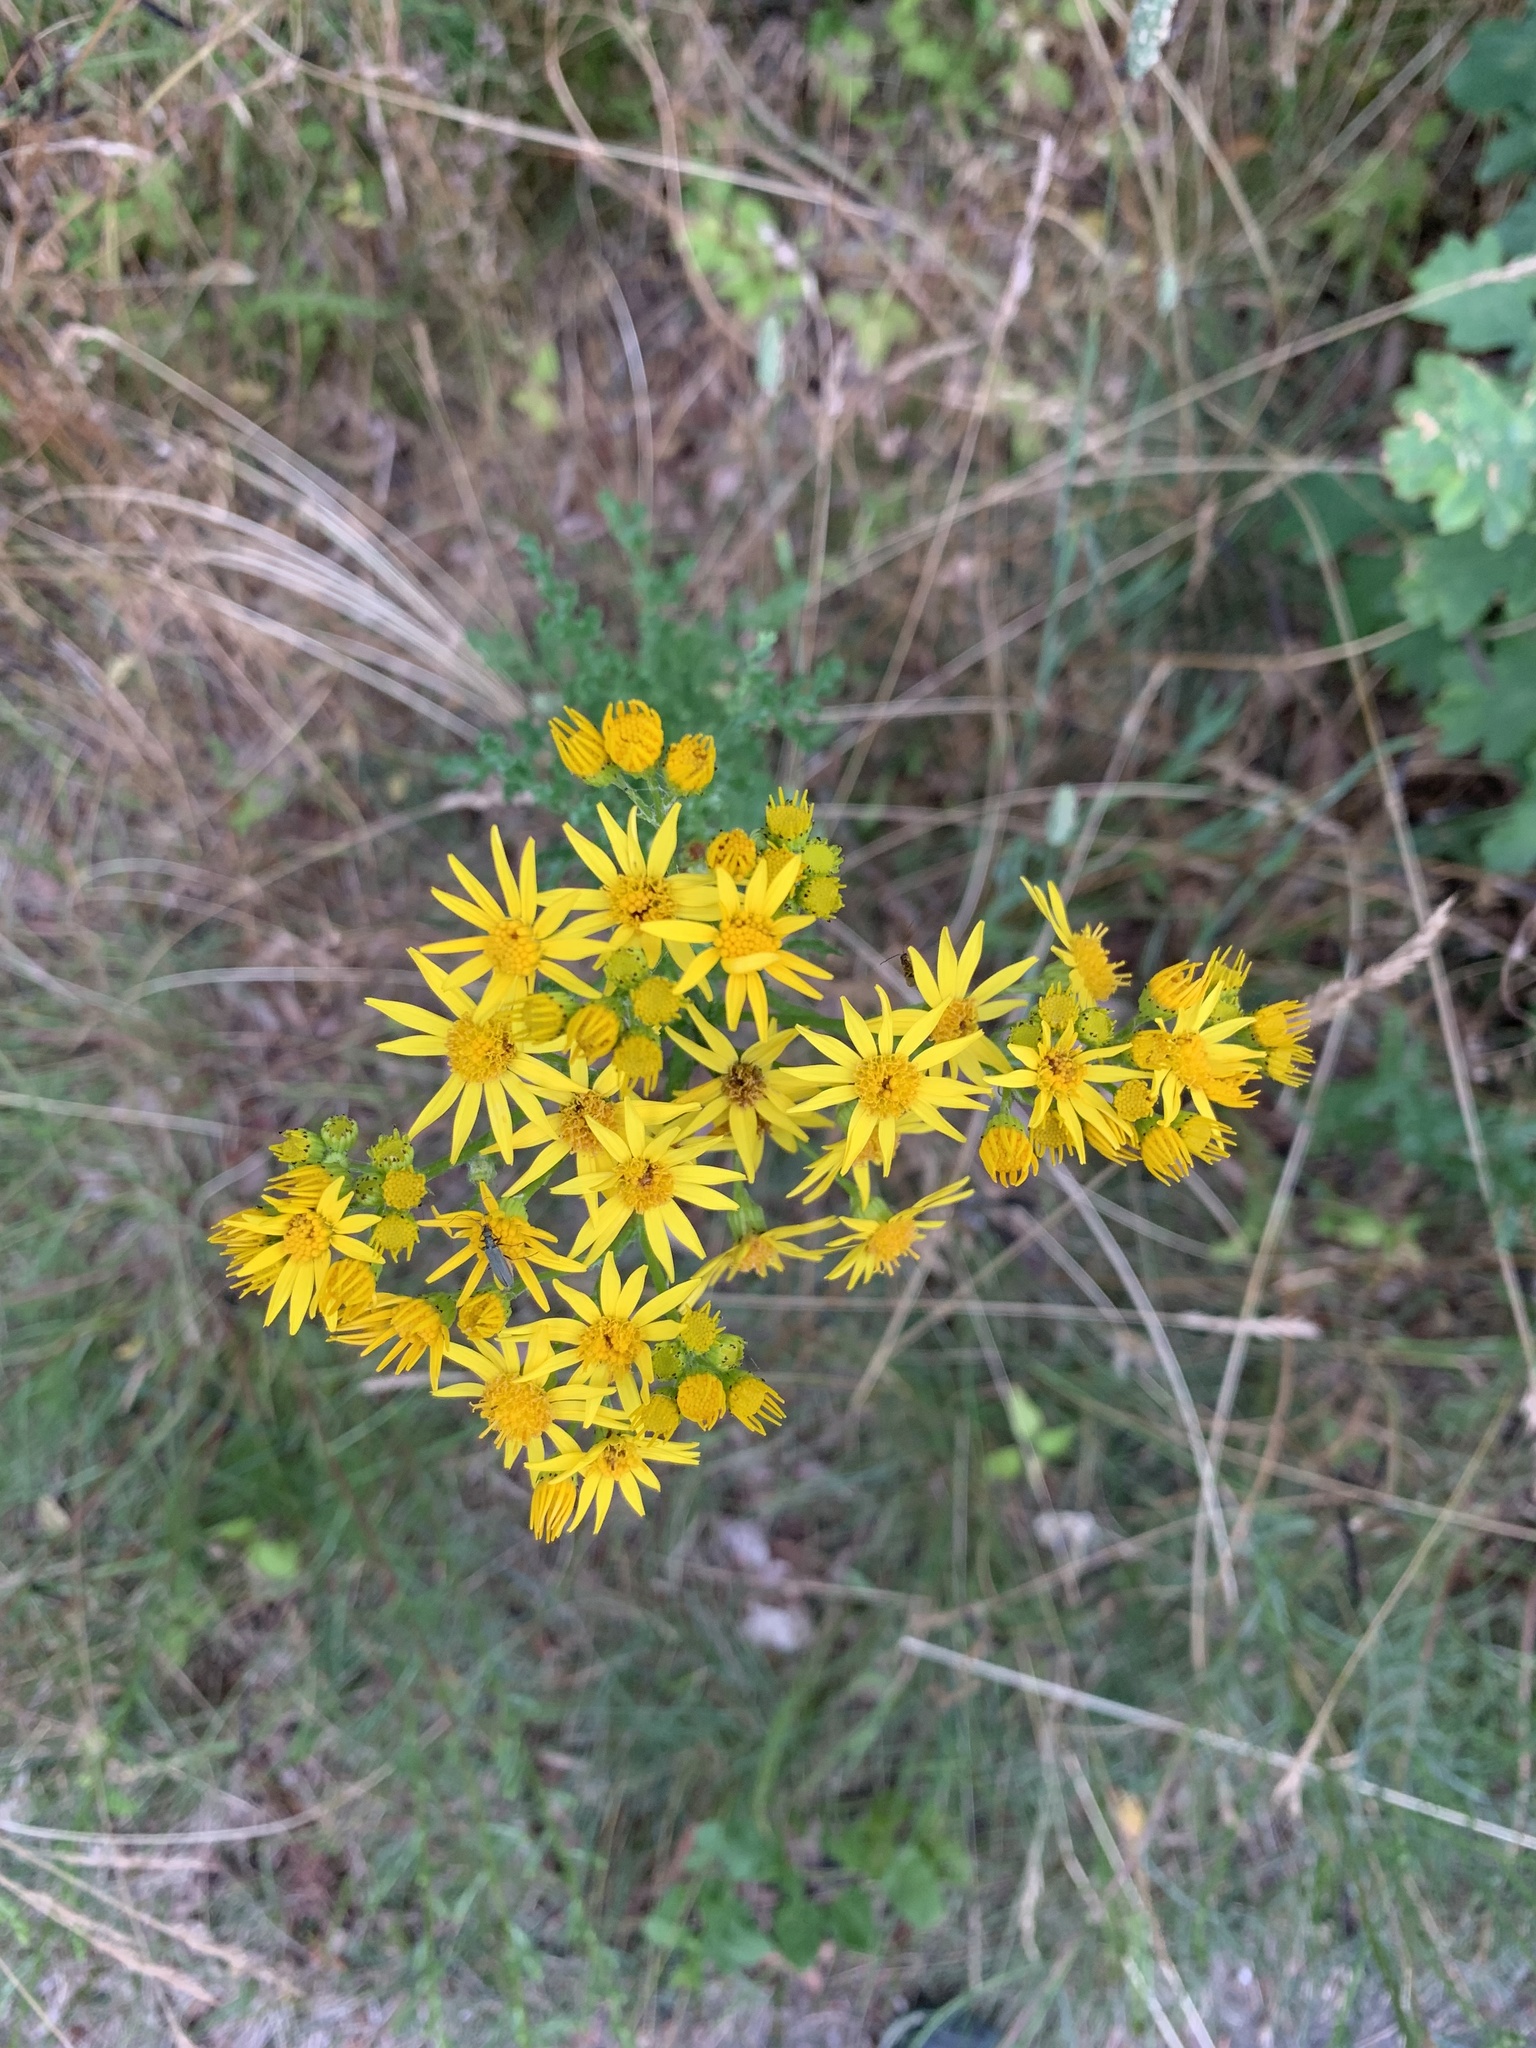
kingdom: Plantae
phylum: Tracheophyta
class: Magnoliopsida
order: Asterales
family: Asteraceae
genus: Jacobaea
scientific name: Jacobaea vulgaris
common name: Stinking willie
